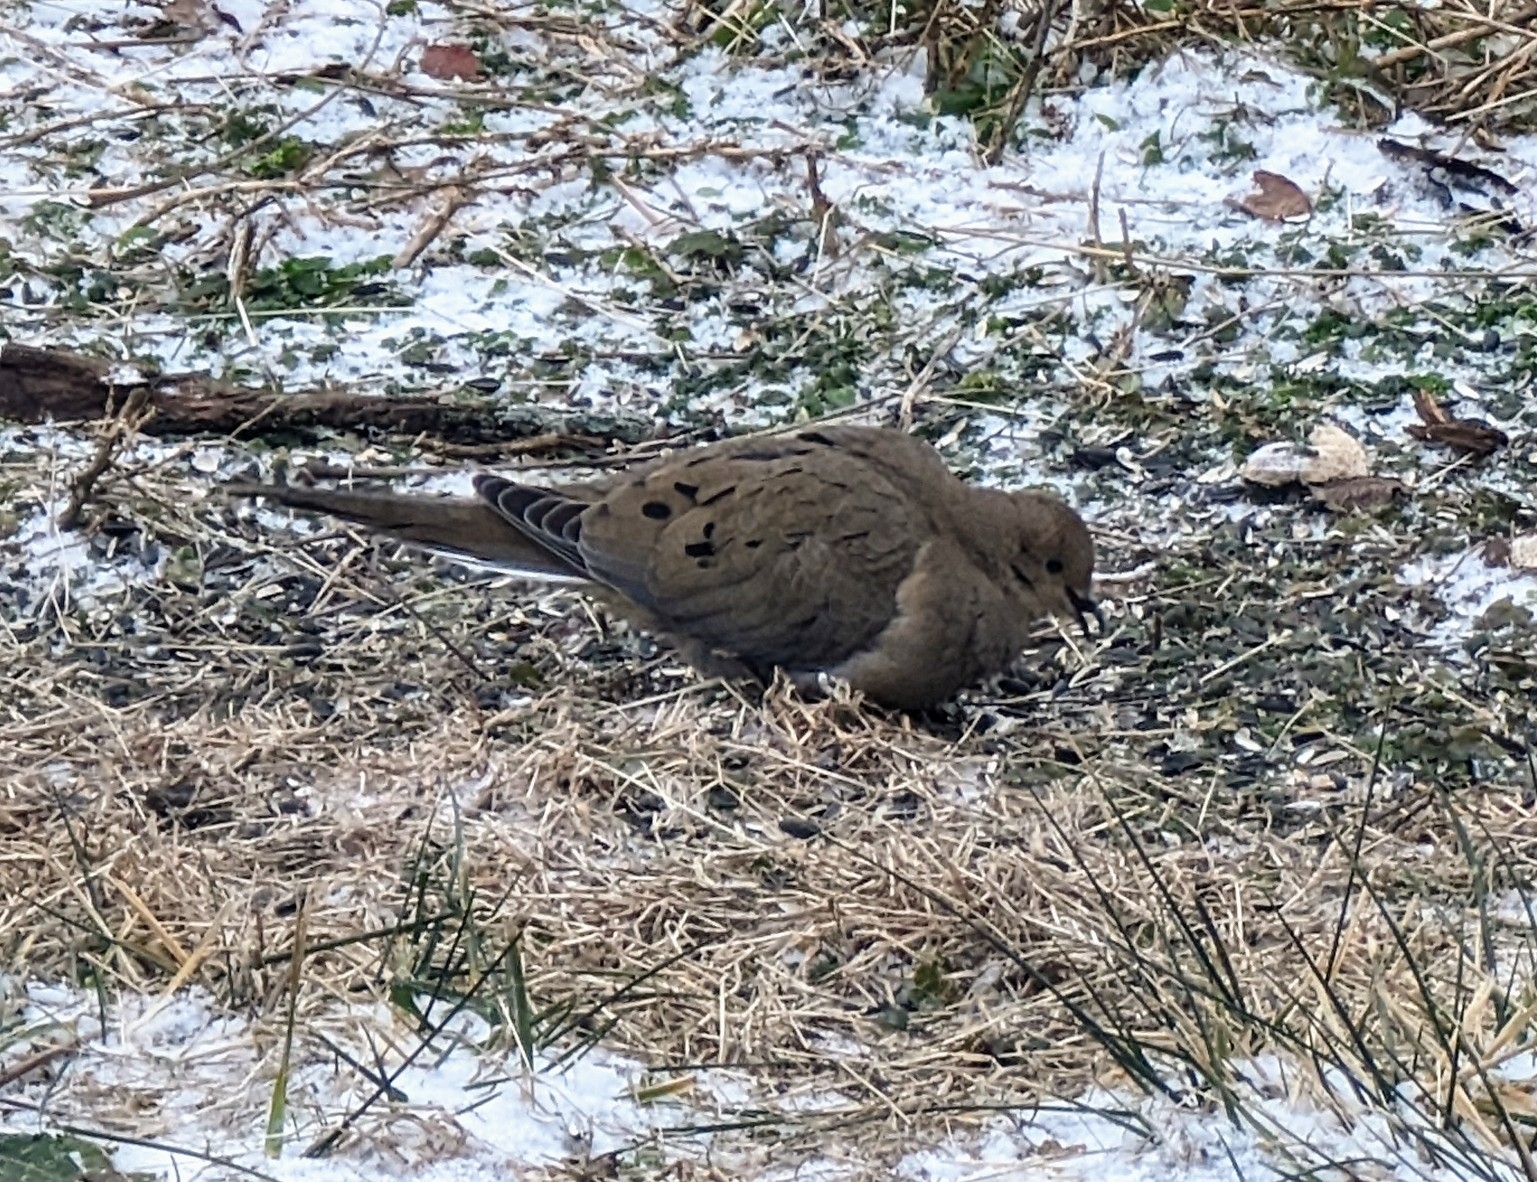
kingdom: Animalia
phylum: Chordata
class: Aves
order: Columbiformes
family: Columbidae
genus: Zenaida
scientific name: Zenaida macroura
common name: Mourning dove
